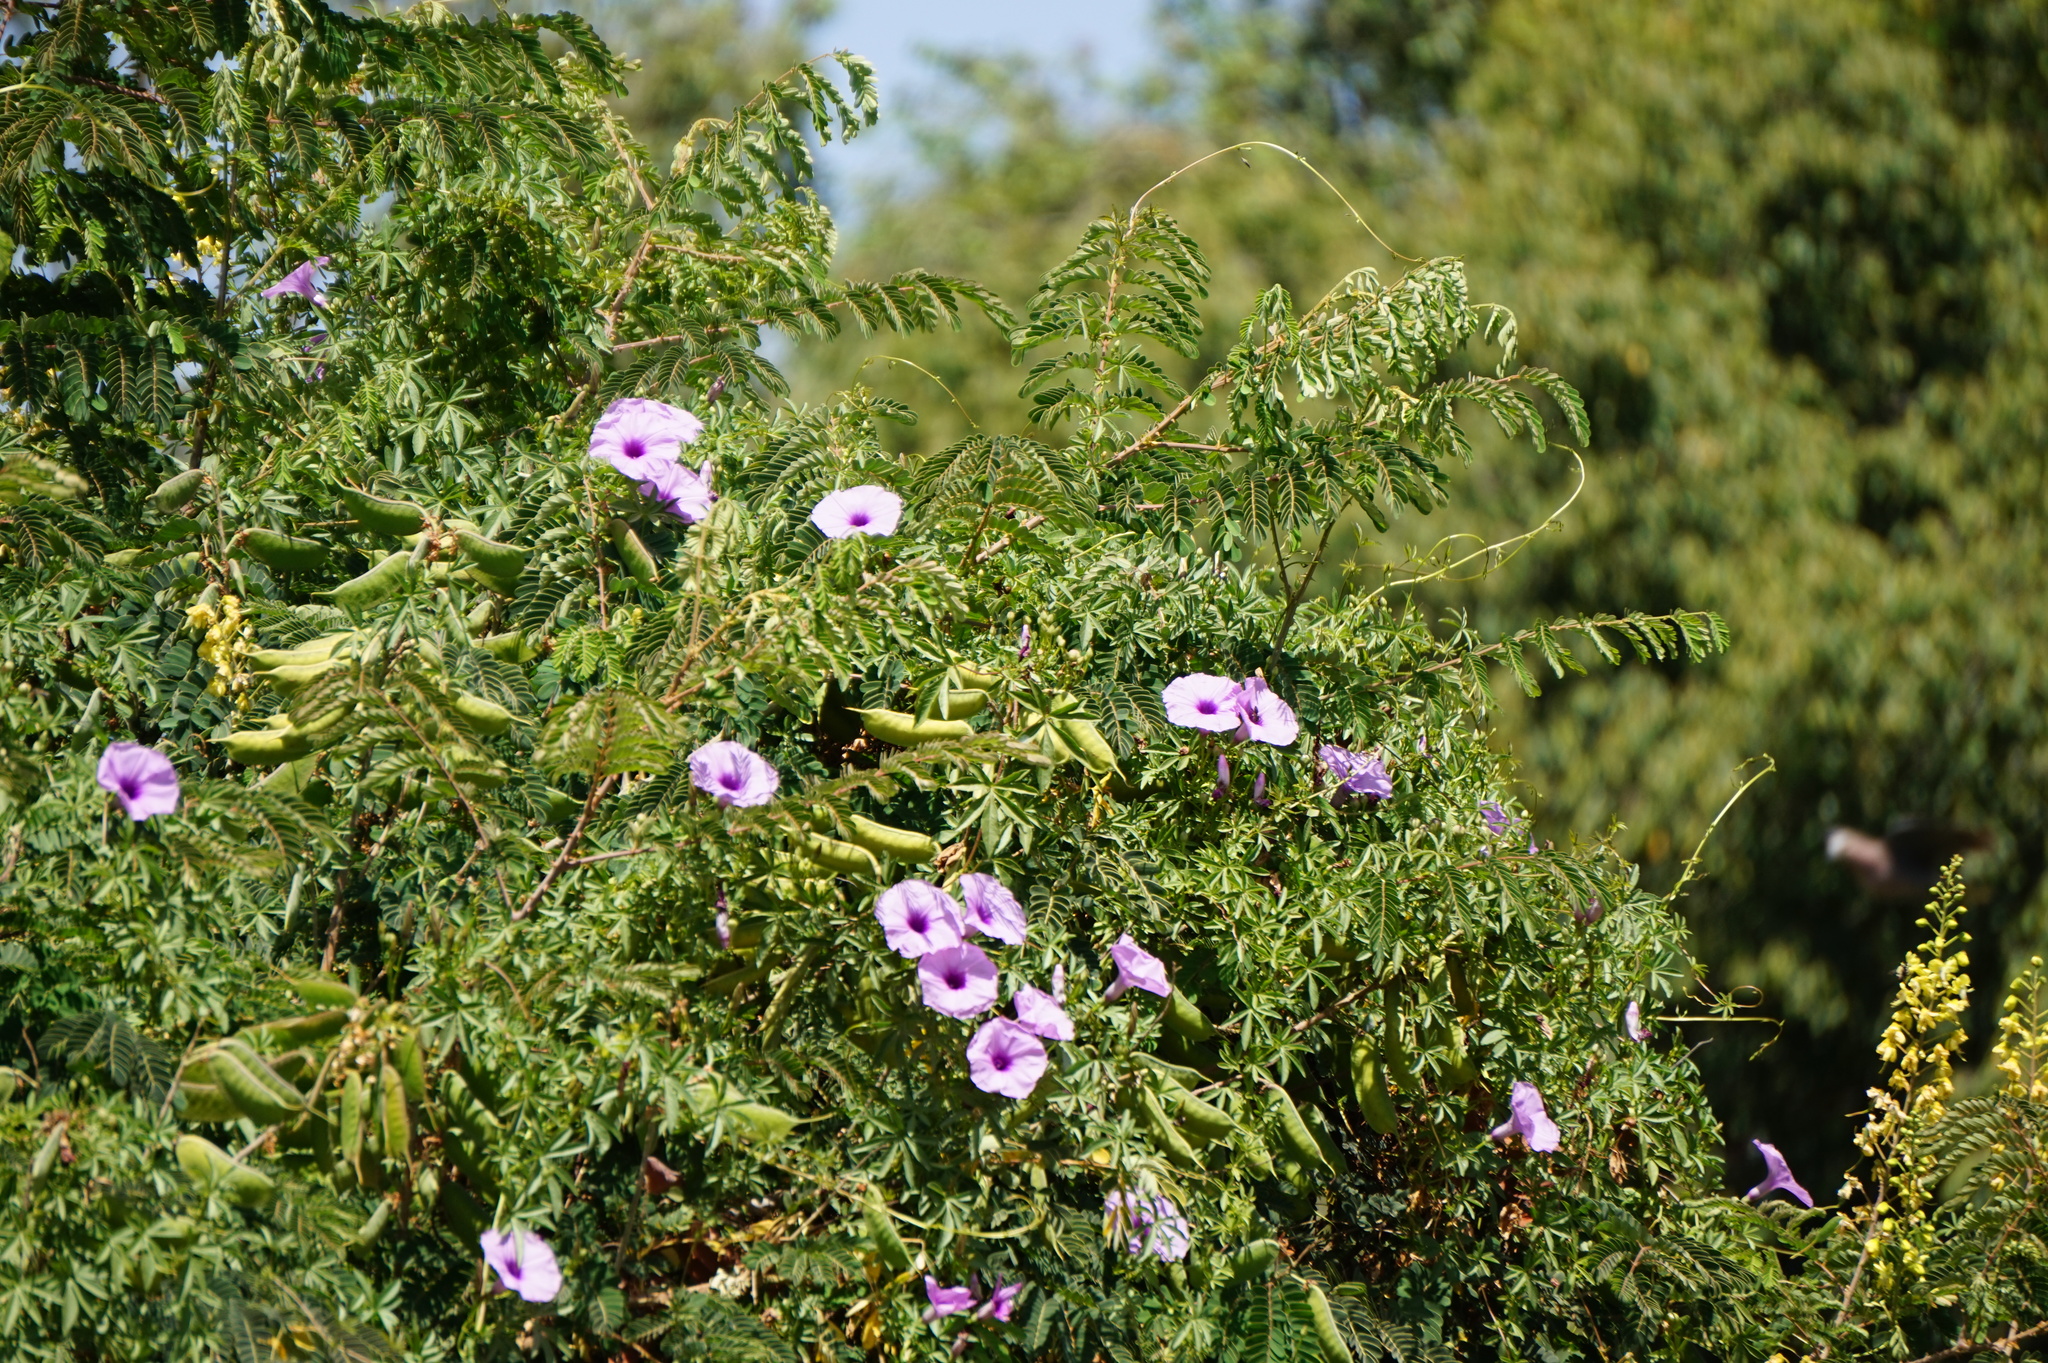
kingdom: Plantae
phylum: Tracheophyta
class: Magnoliopsida
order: Solanales
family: Convolvulaceae
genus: Ipomoea
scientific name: Ipomoea cairica
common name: Mile a minute vine
